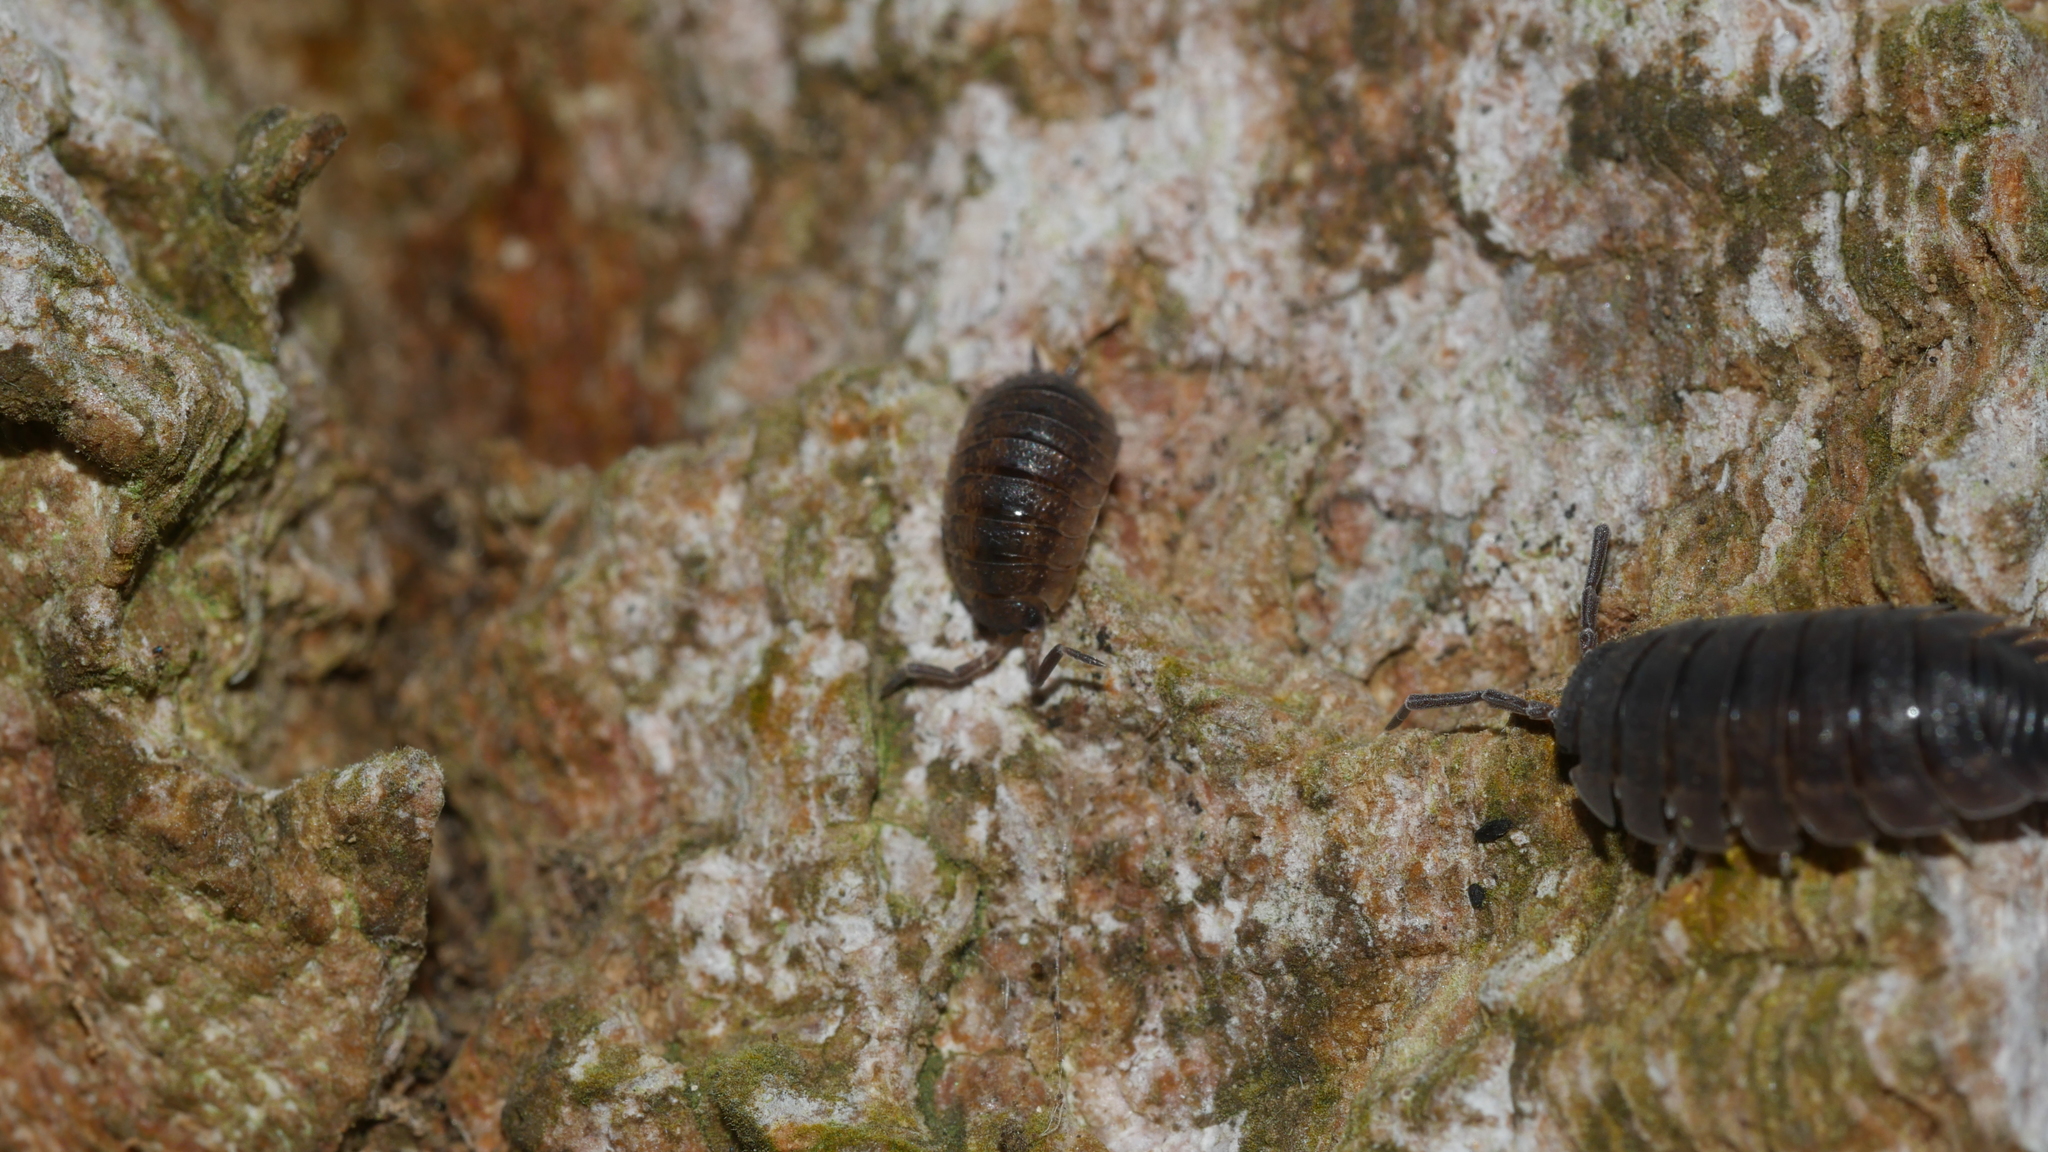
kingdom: Animalia
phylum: Arthropoda
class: Malacostraca
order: Isopoda
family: Porcellionidae
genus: Porcellio
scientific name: Porcellio scaber
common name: Common rough woodlouse
